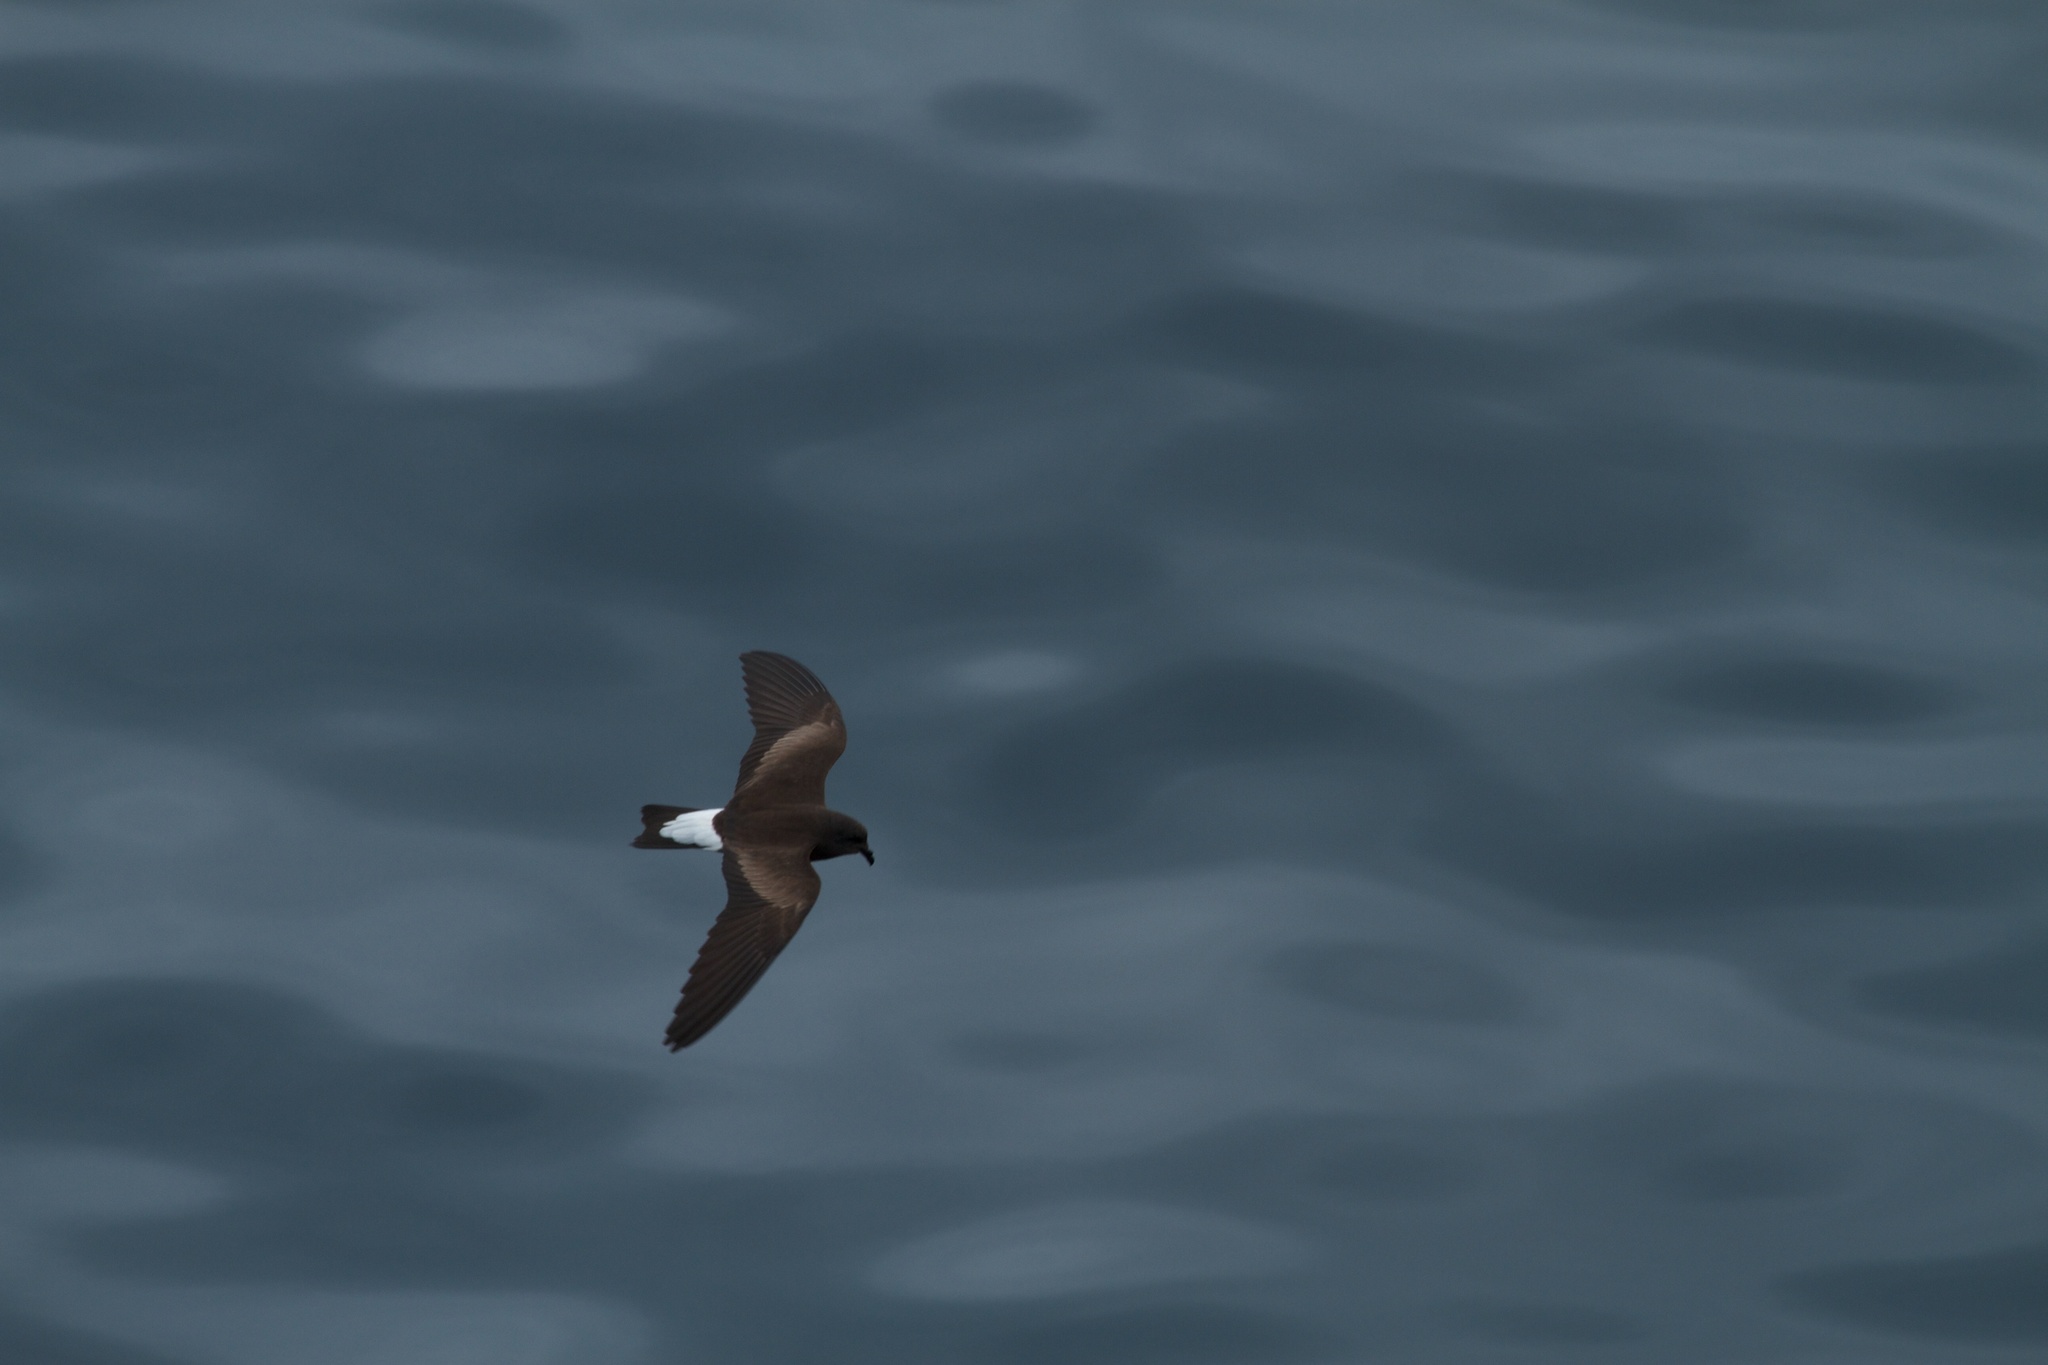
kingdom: Animalia
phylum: Chordata
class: Aves
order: Procellariiformes
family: Hydrobatidae
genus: Oceanodroma
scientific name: Oceanodroma tethys
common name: Wedge-rumped storm-petrel
